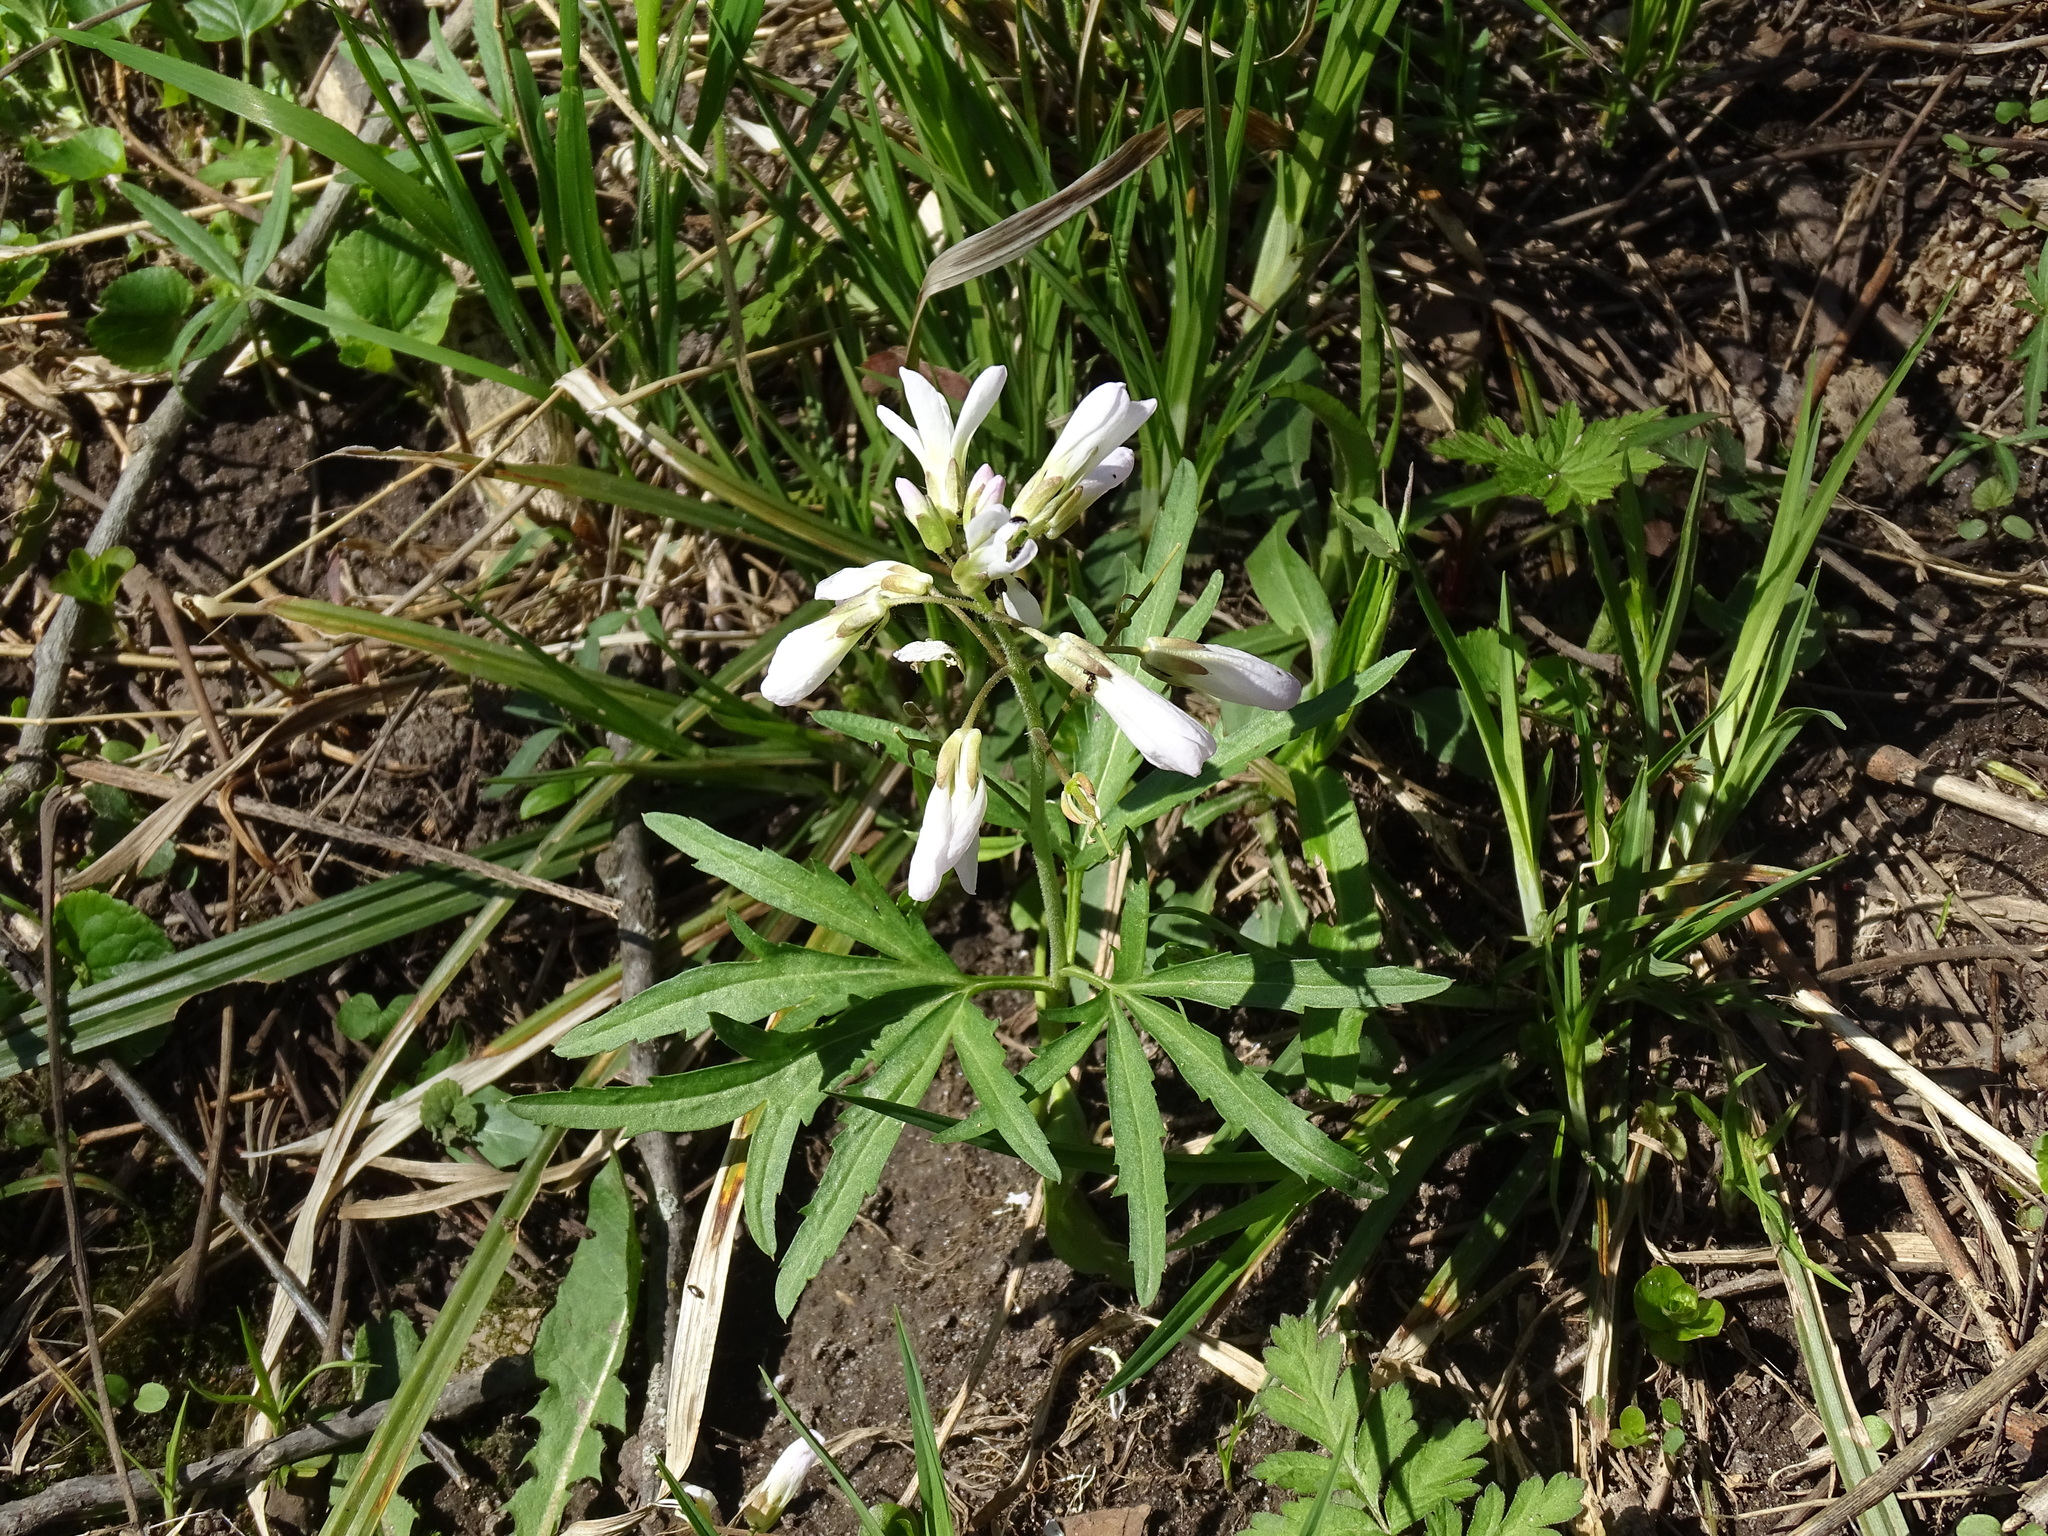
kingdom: Plantae
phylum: Tracheophyta
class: Magnoliopsida
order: Brassicales
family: Brassicaceae
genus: Cardamine
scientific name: Cardamine concatenata
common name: Cut-leaf toothcup
